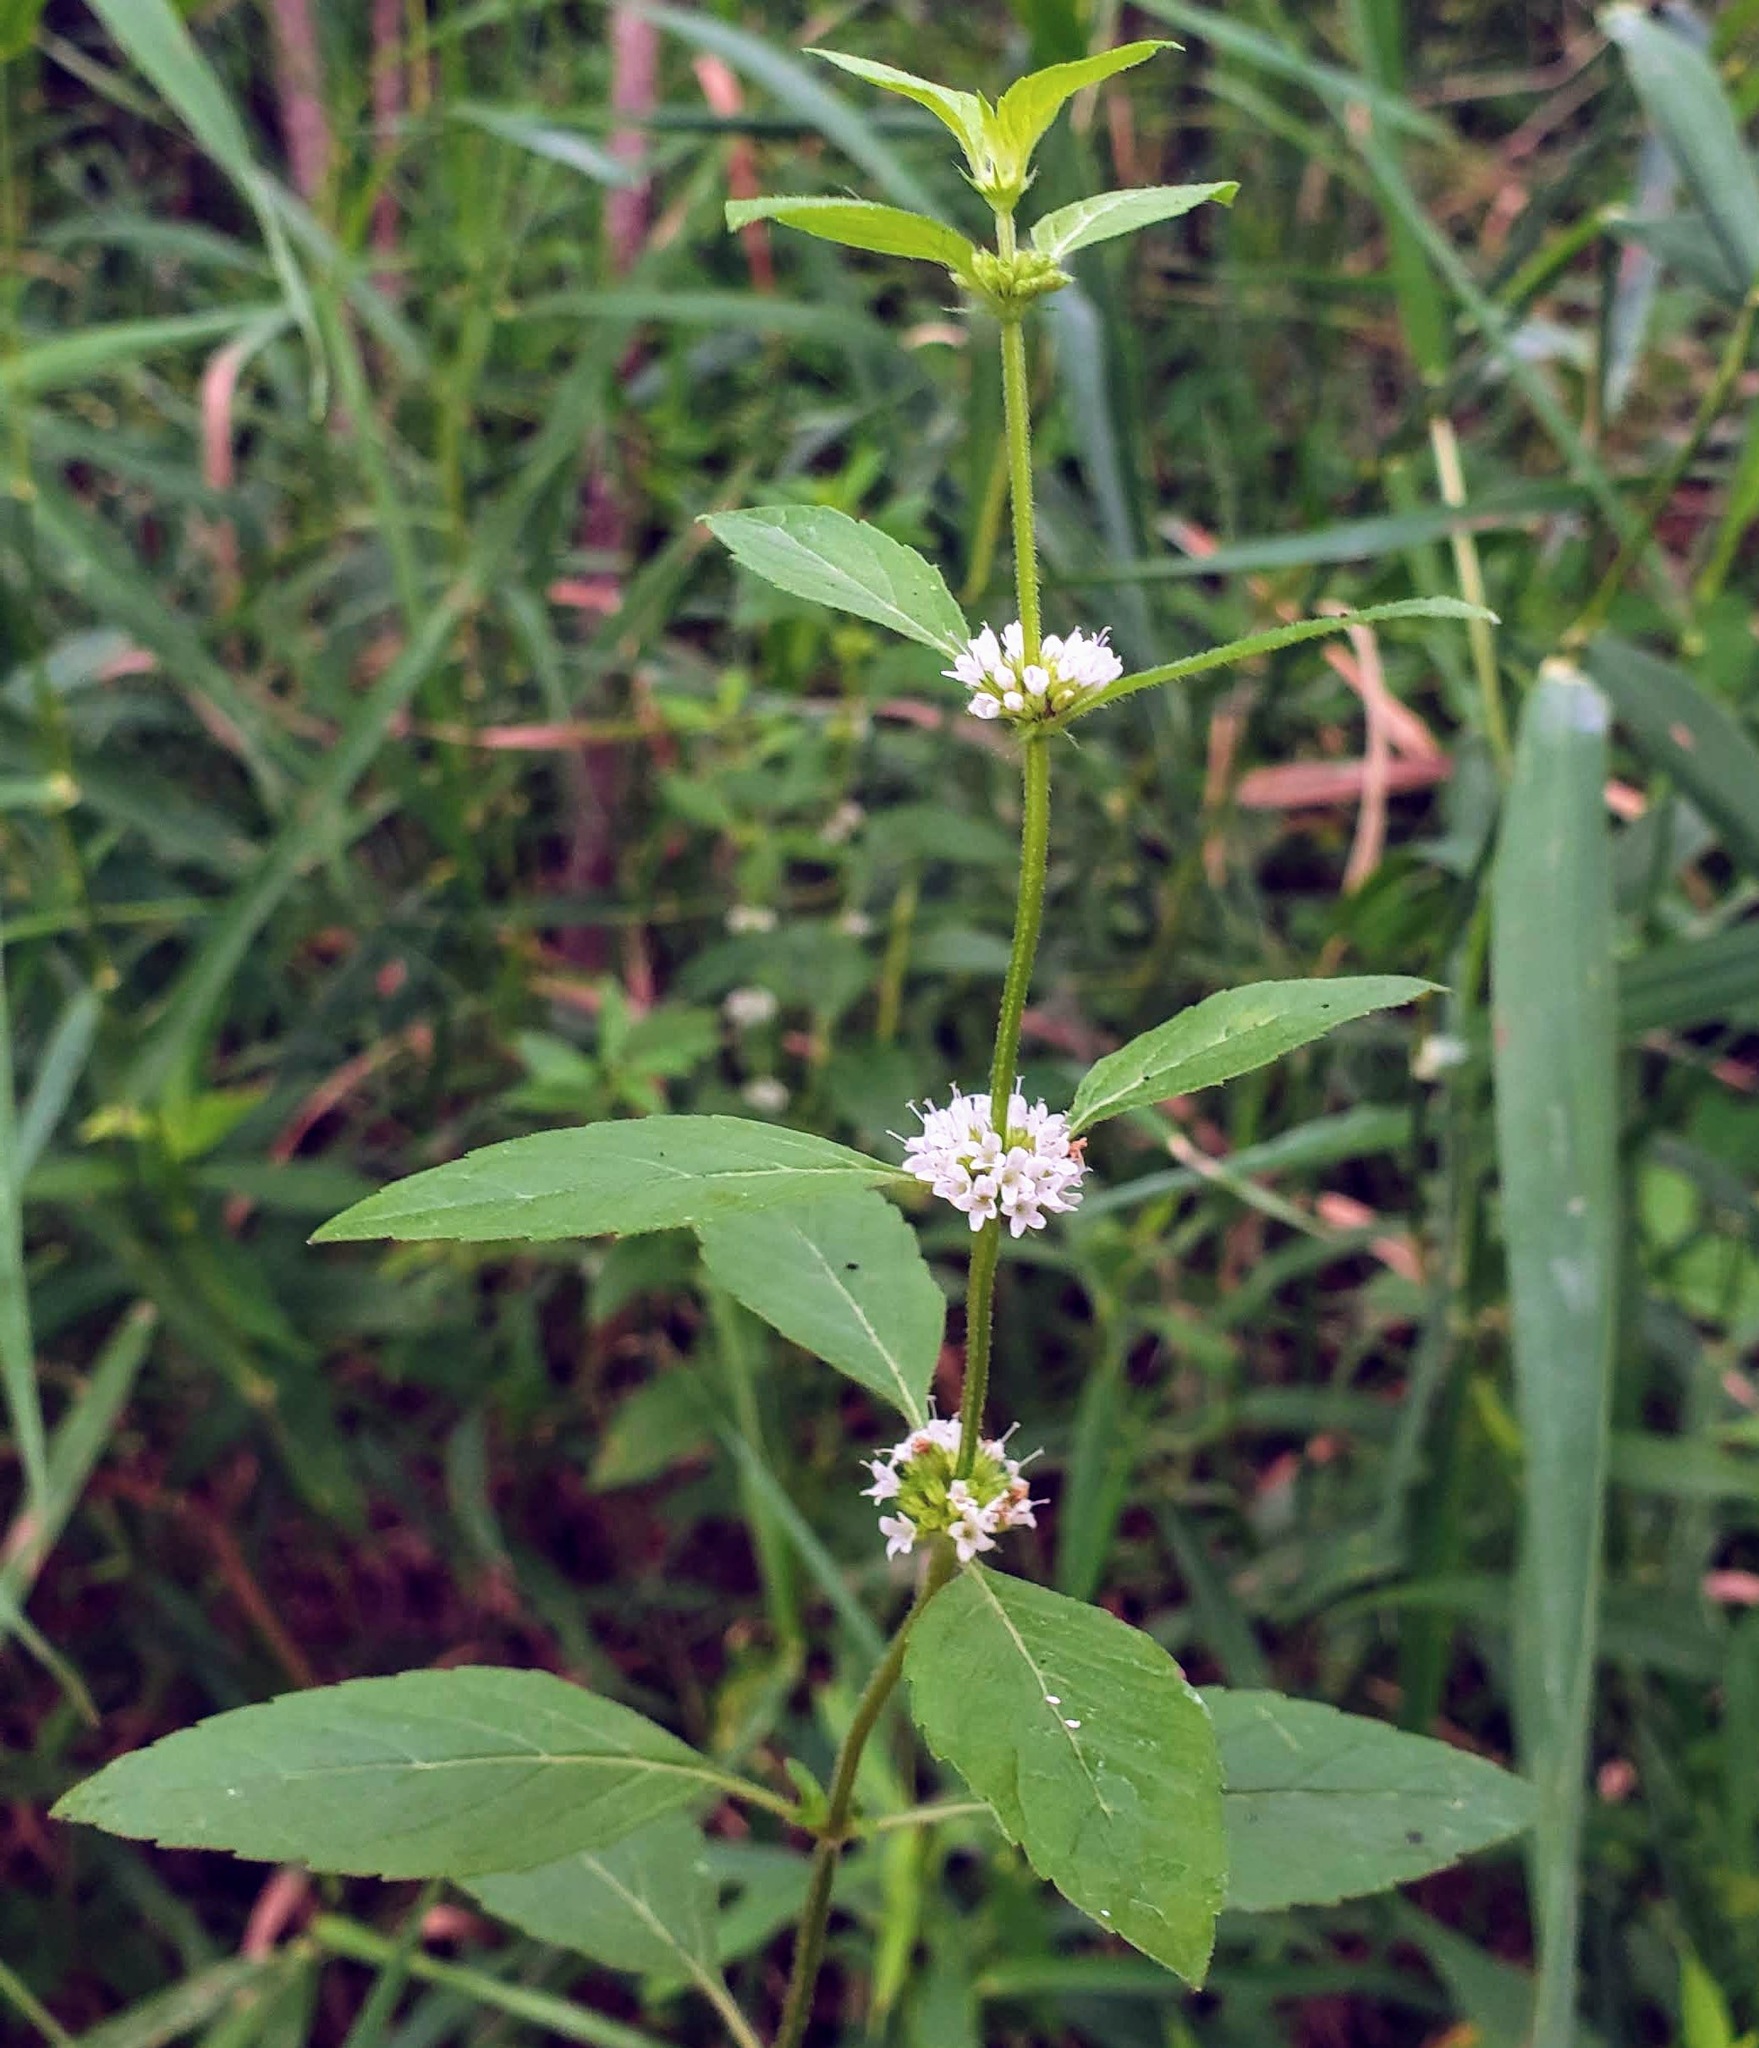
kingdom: Plantae
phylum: Tracheophyta
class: Magnoliopsida
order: Lamiales
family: Lamiaceae
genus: Mentha
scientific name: Mentha canadensis
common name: American corn mint
